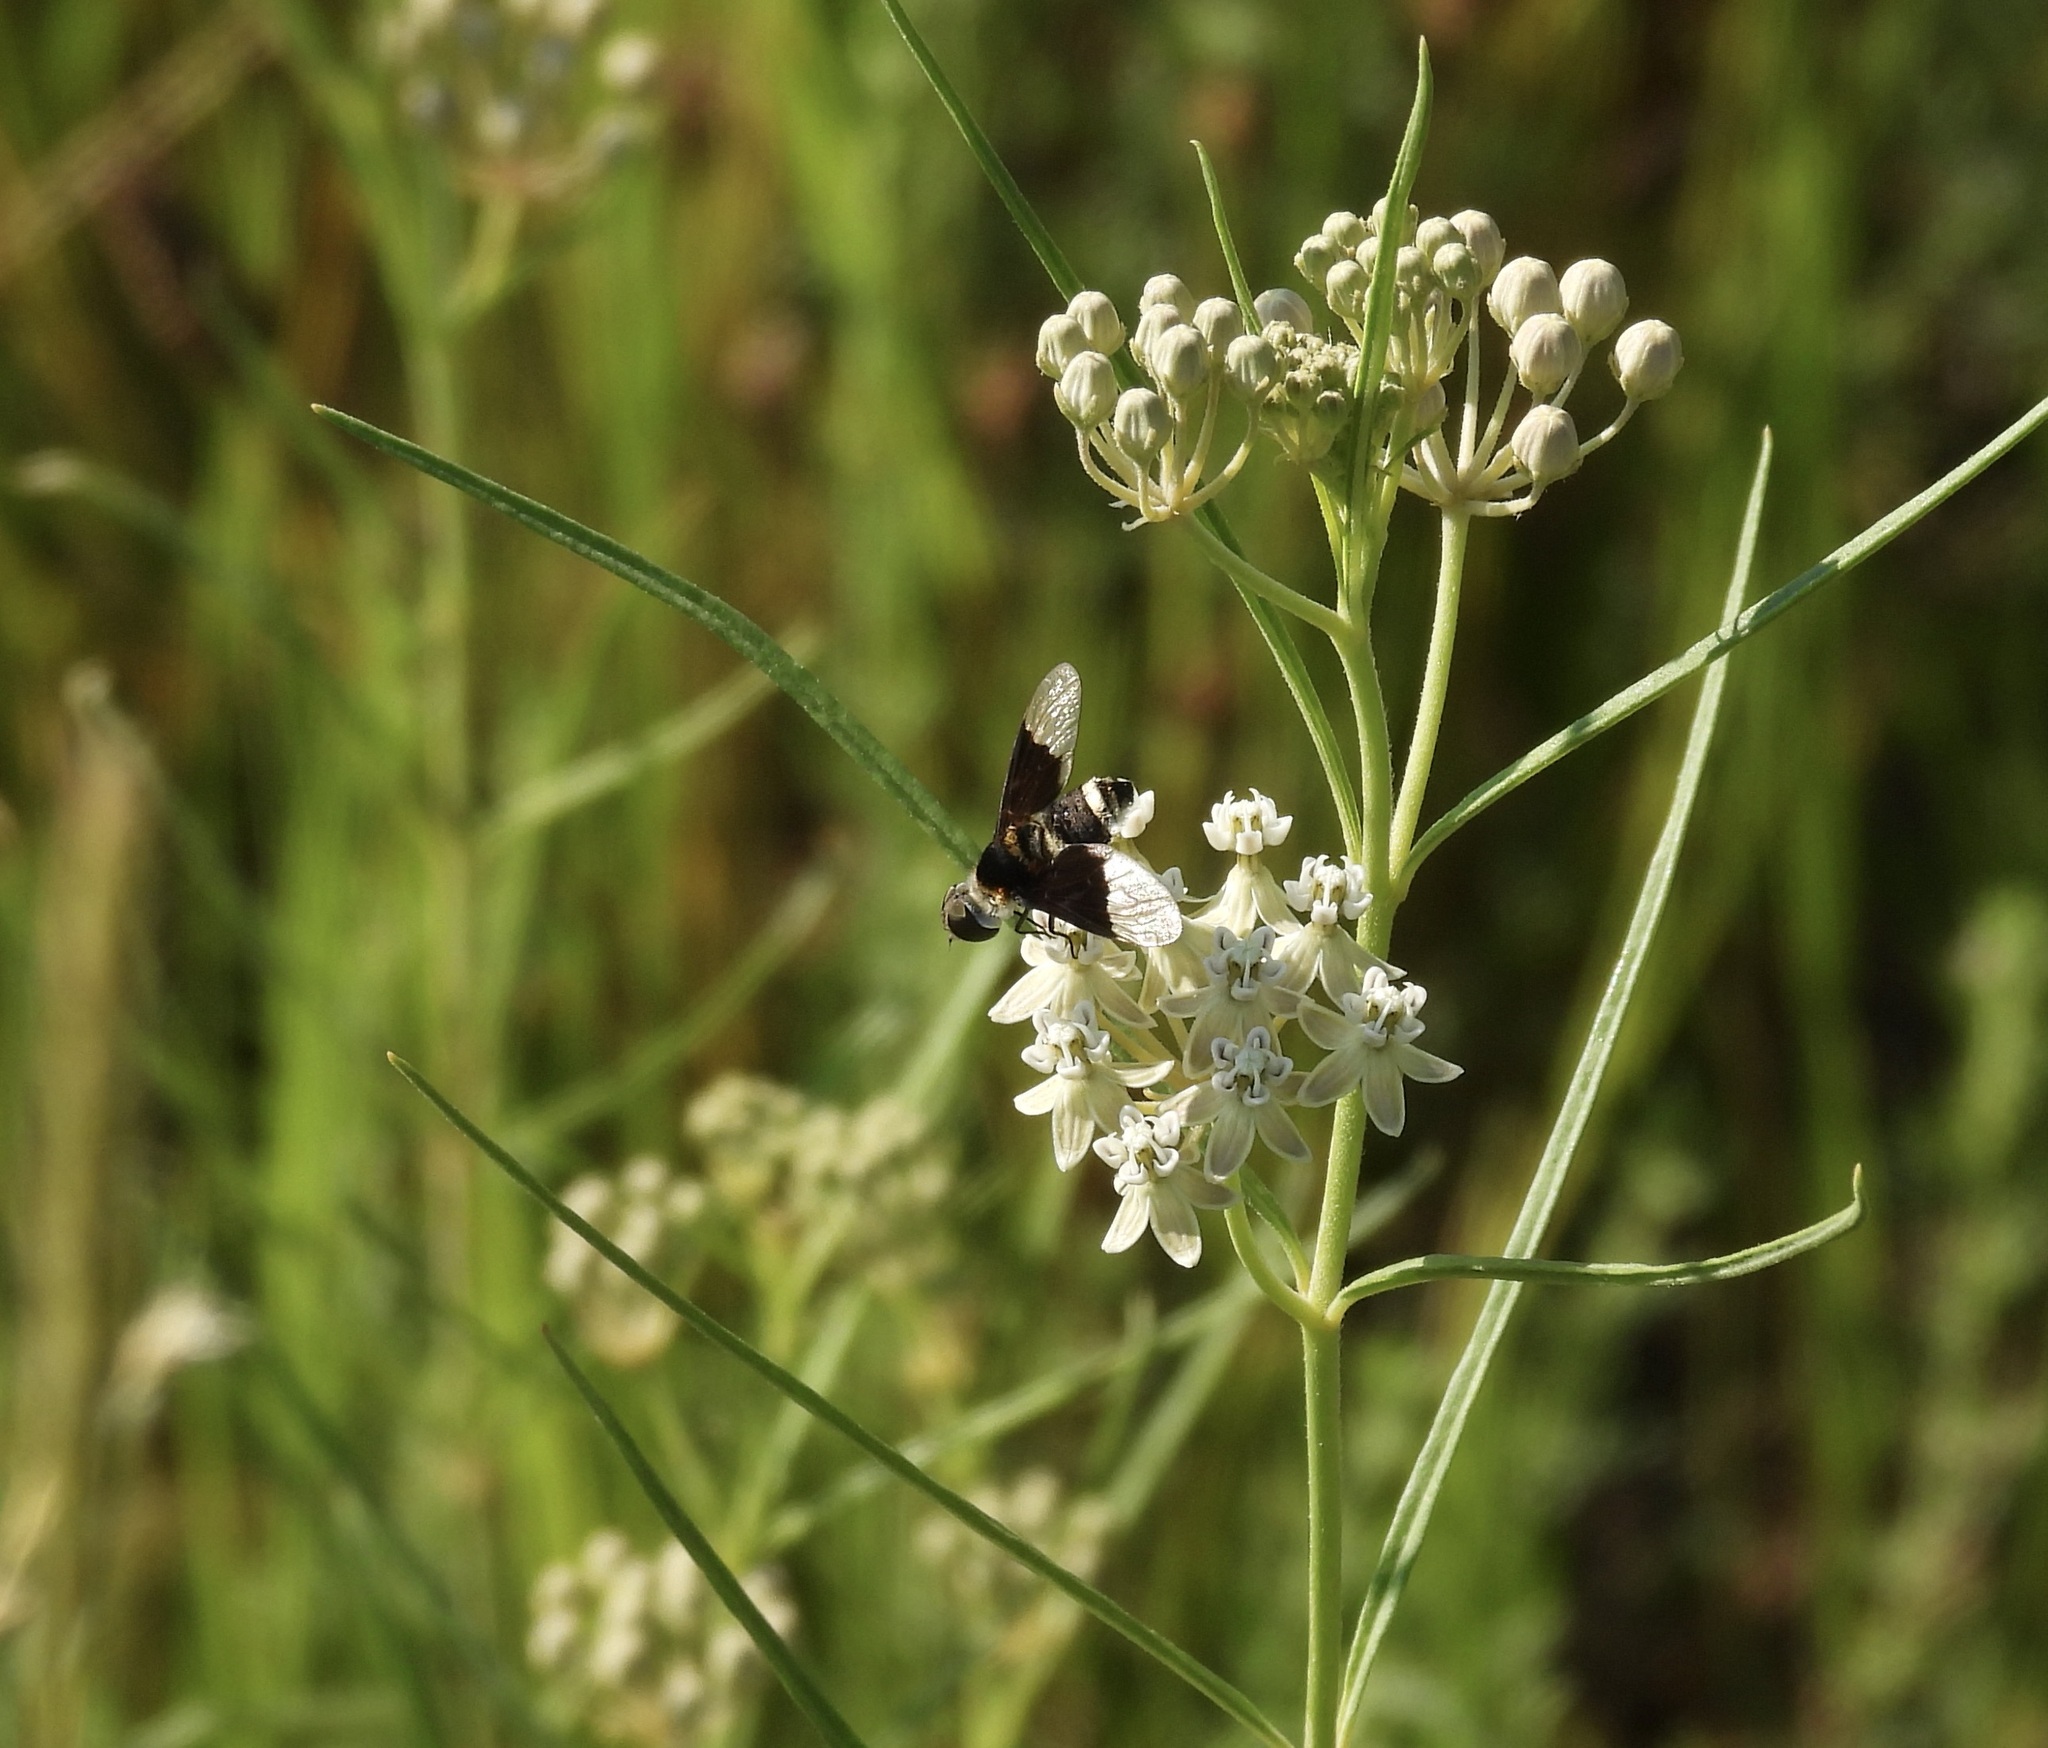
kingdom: Animalia
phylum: Arthropoda
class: Insecta
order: Diptera
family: Bombyliidae
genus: Ins
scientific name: Ins celeris
